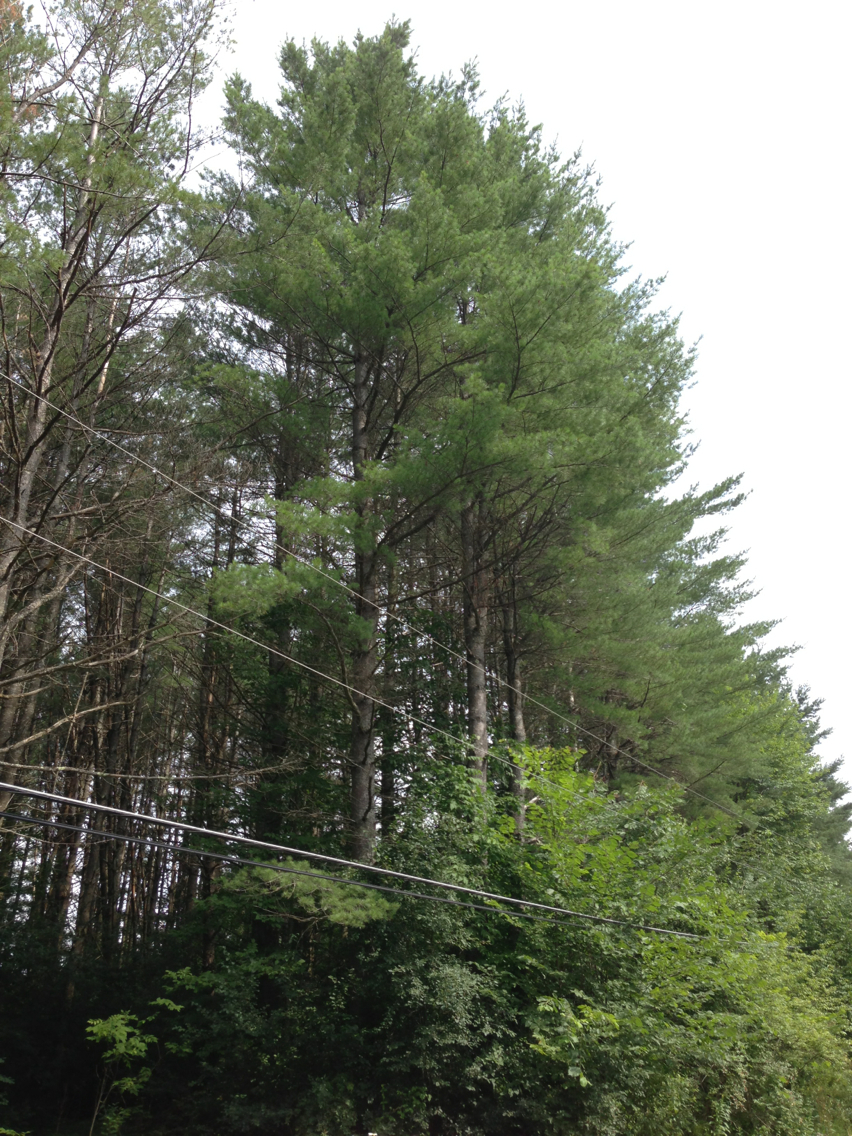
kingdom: Plantae
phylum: Tracheophyta
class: Pinopsida
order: Pinales
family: Pinaceae
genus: Pinus
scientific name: Pinus strobus
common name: Weymouth pine
